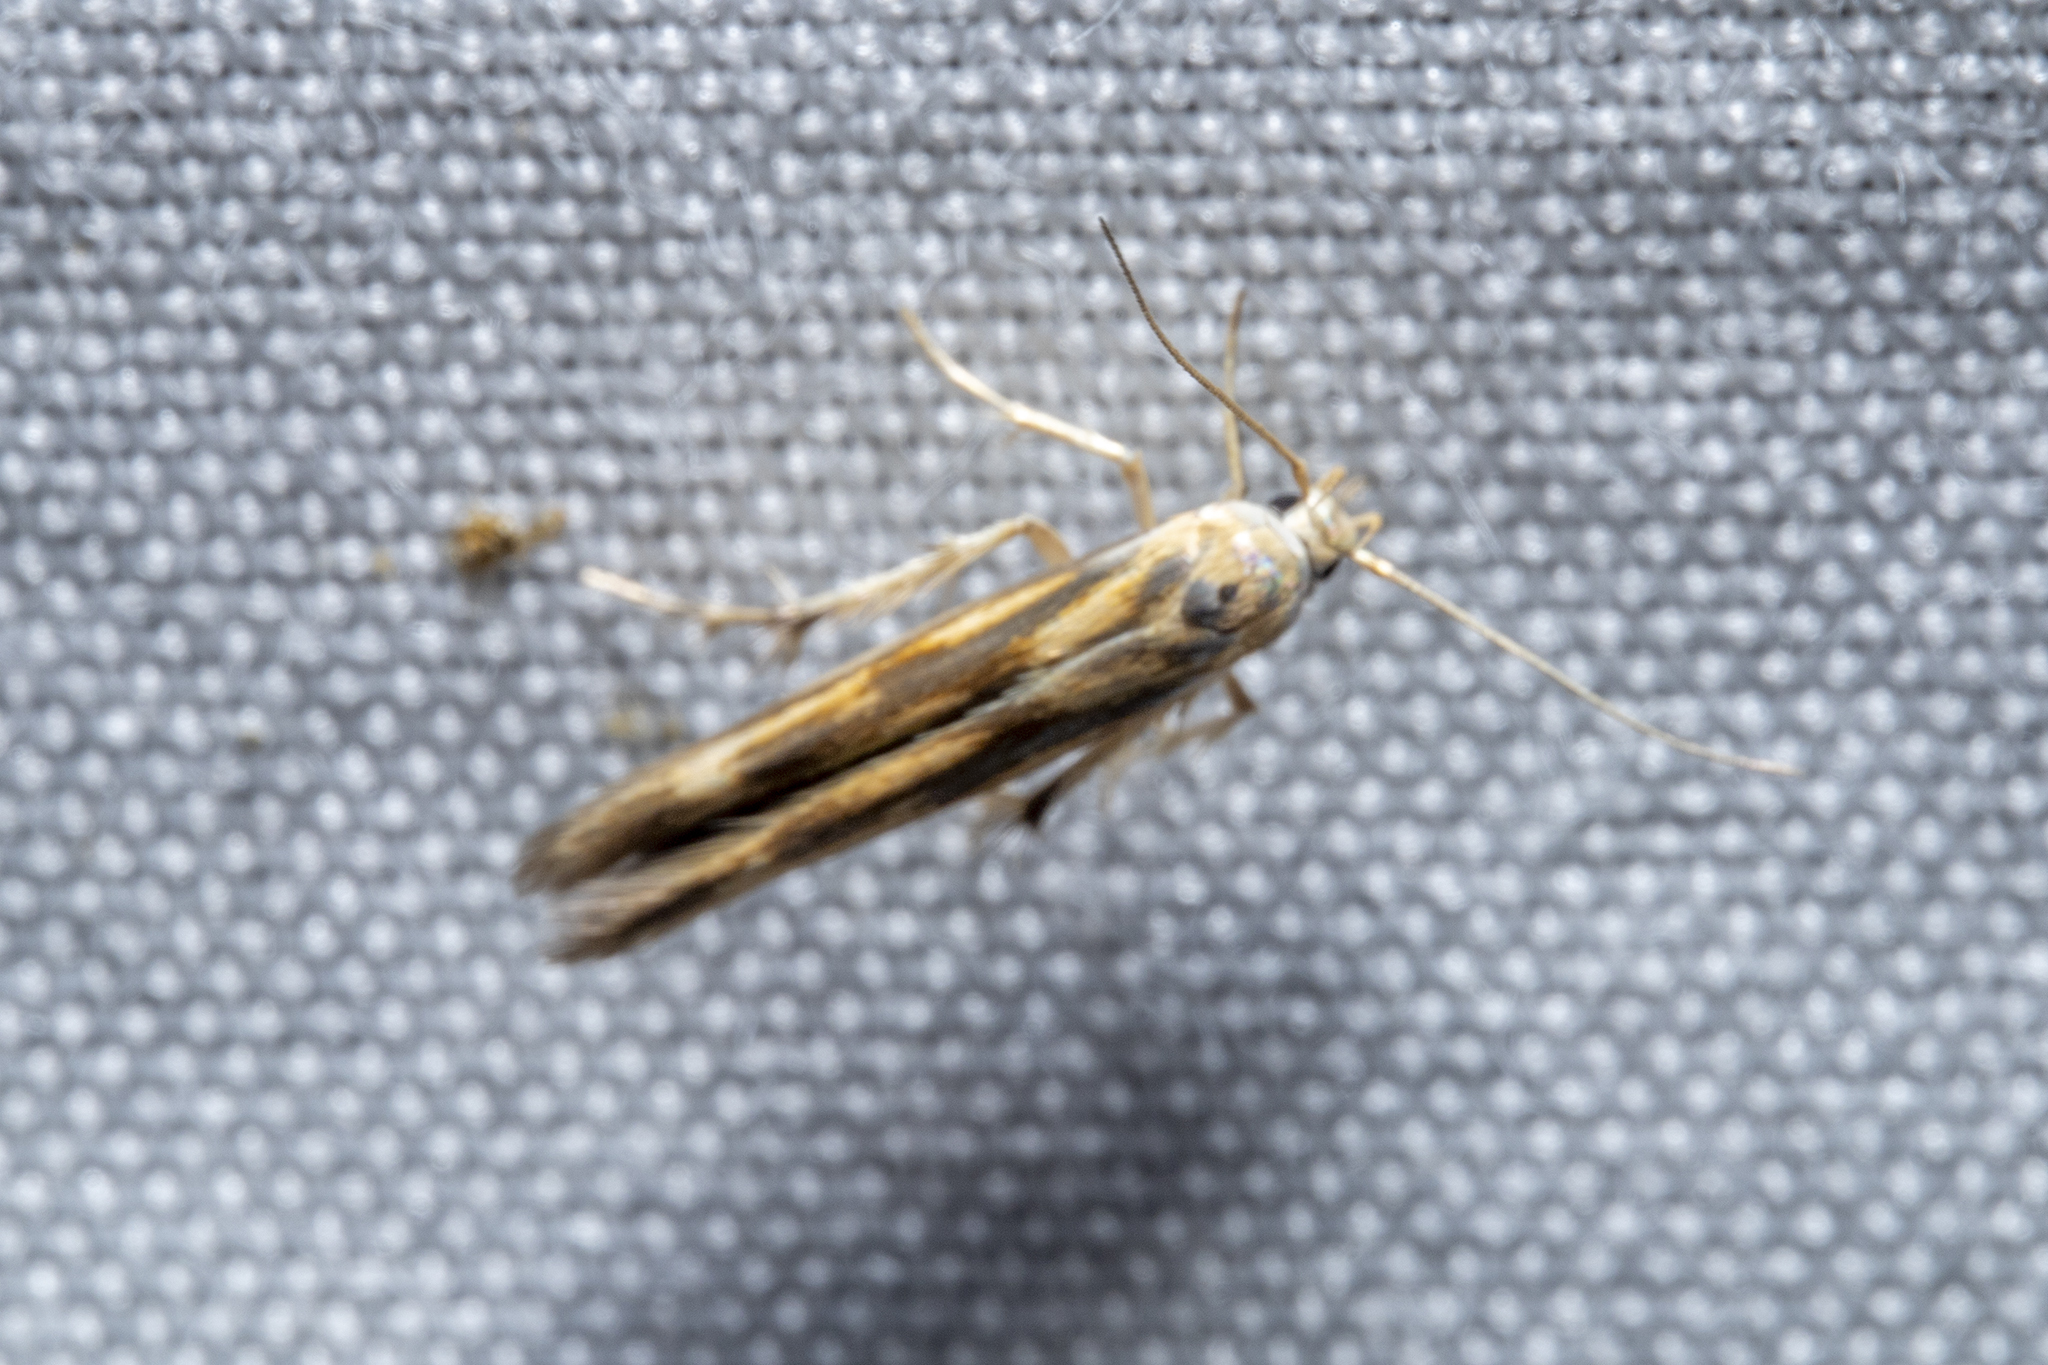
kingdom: Animalia
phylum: Arthropoda
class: Insecta
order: Lepidoptera
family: Stathmopodidae
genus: Stathmopoda
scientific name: Stathmopoda horticola
